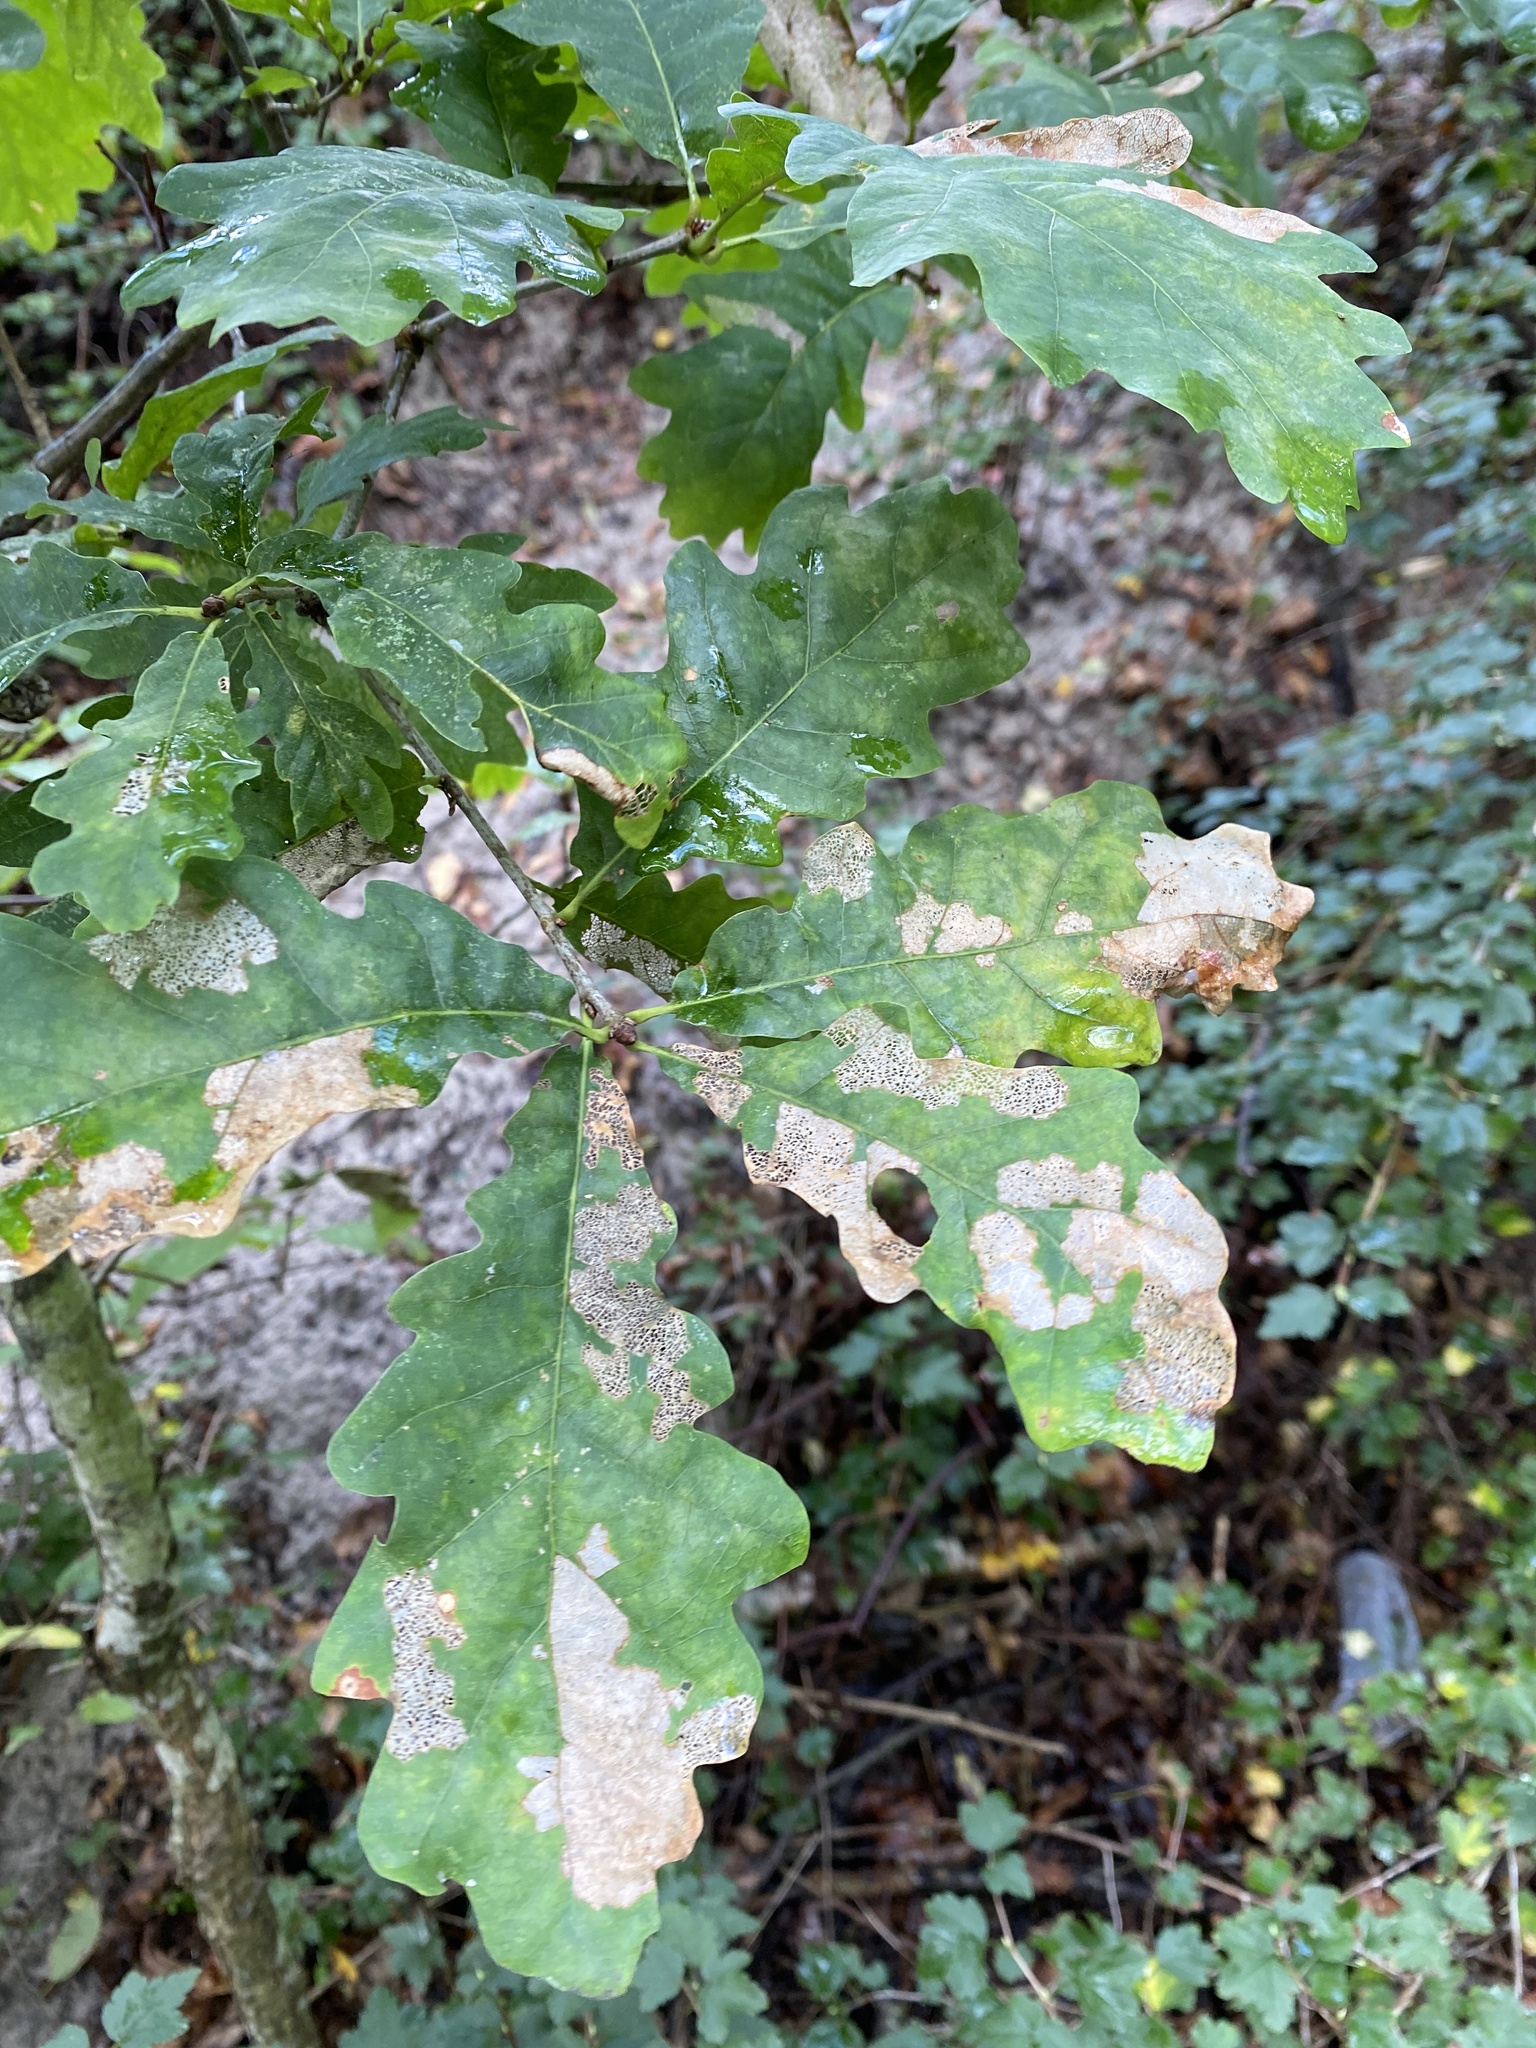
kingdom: Plantae
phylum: Tracheophyta
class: Magnoliopsida
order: Fagales
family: Fagaceae
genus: Quercus
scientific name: Quercus robur
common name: Pedunculate oak
